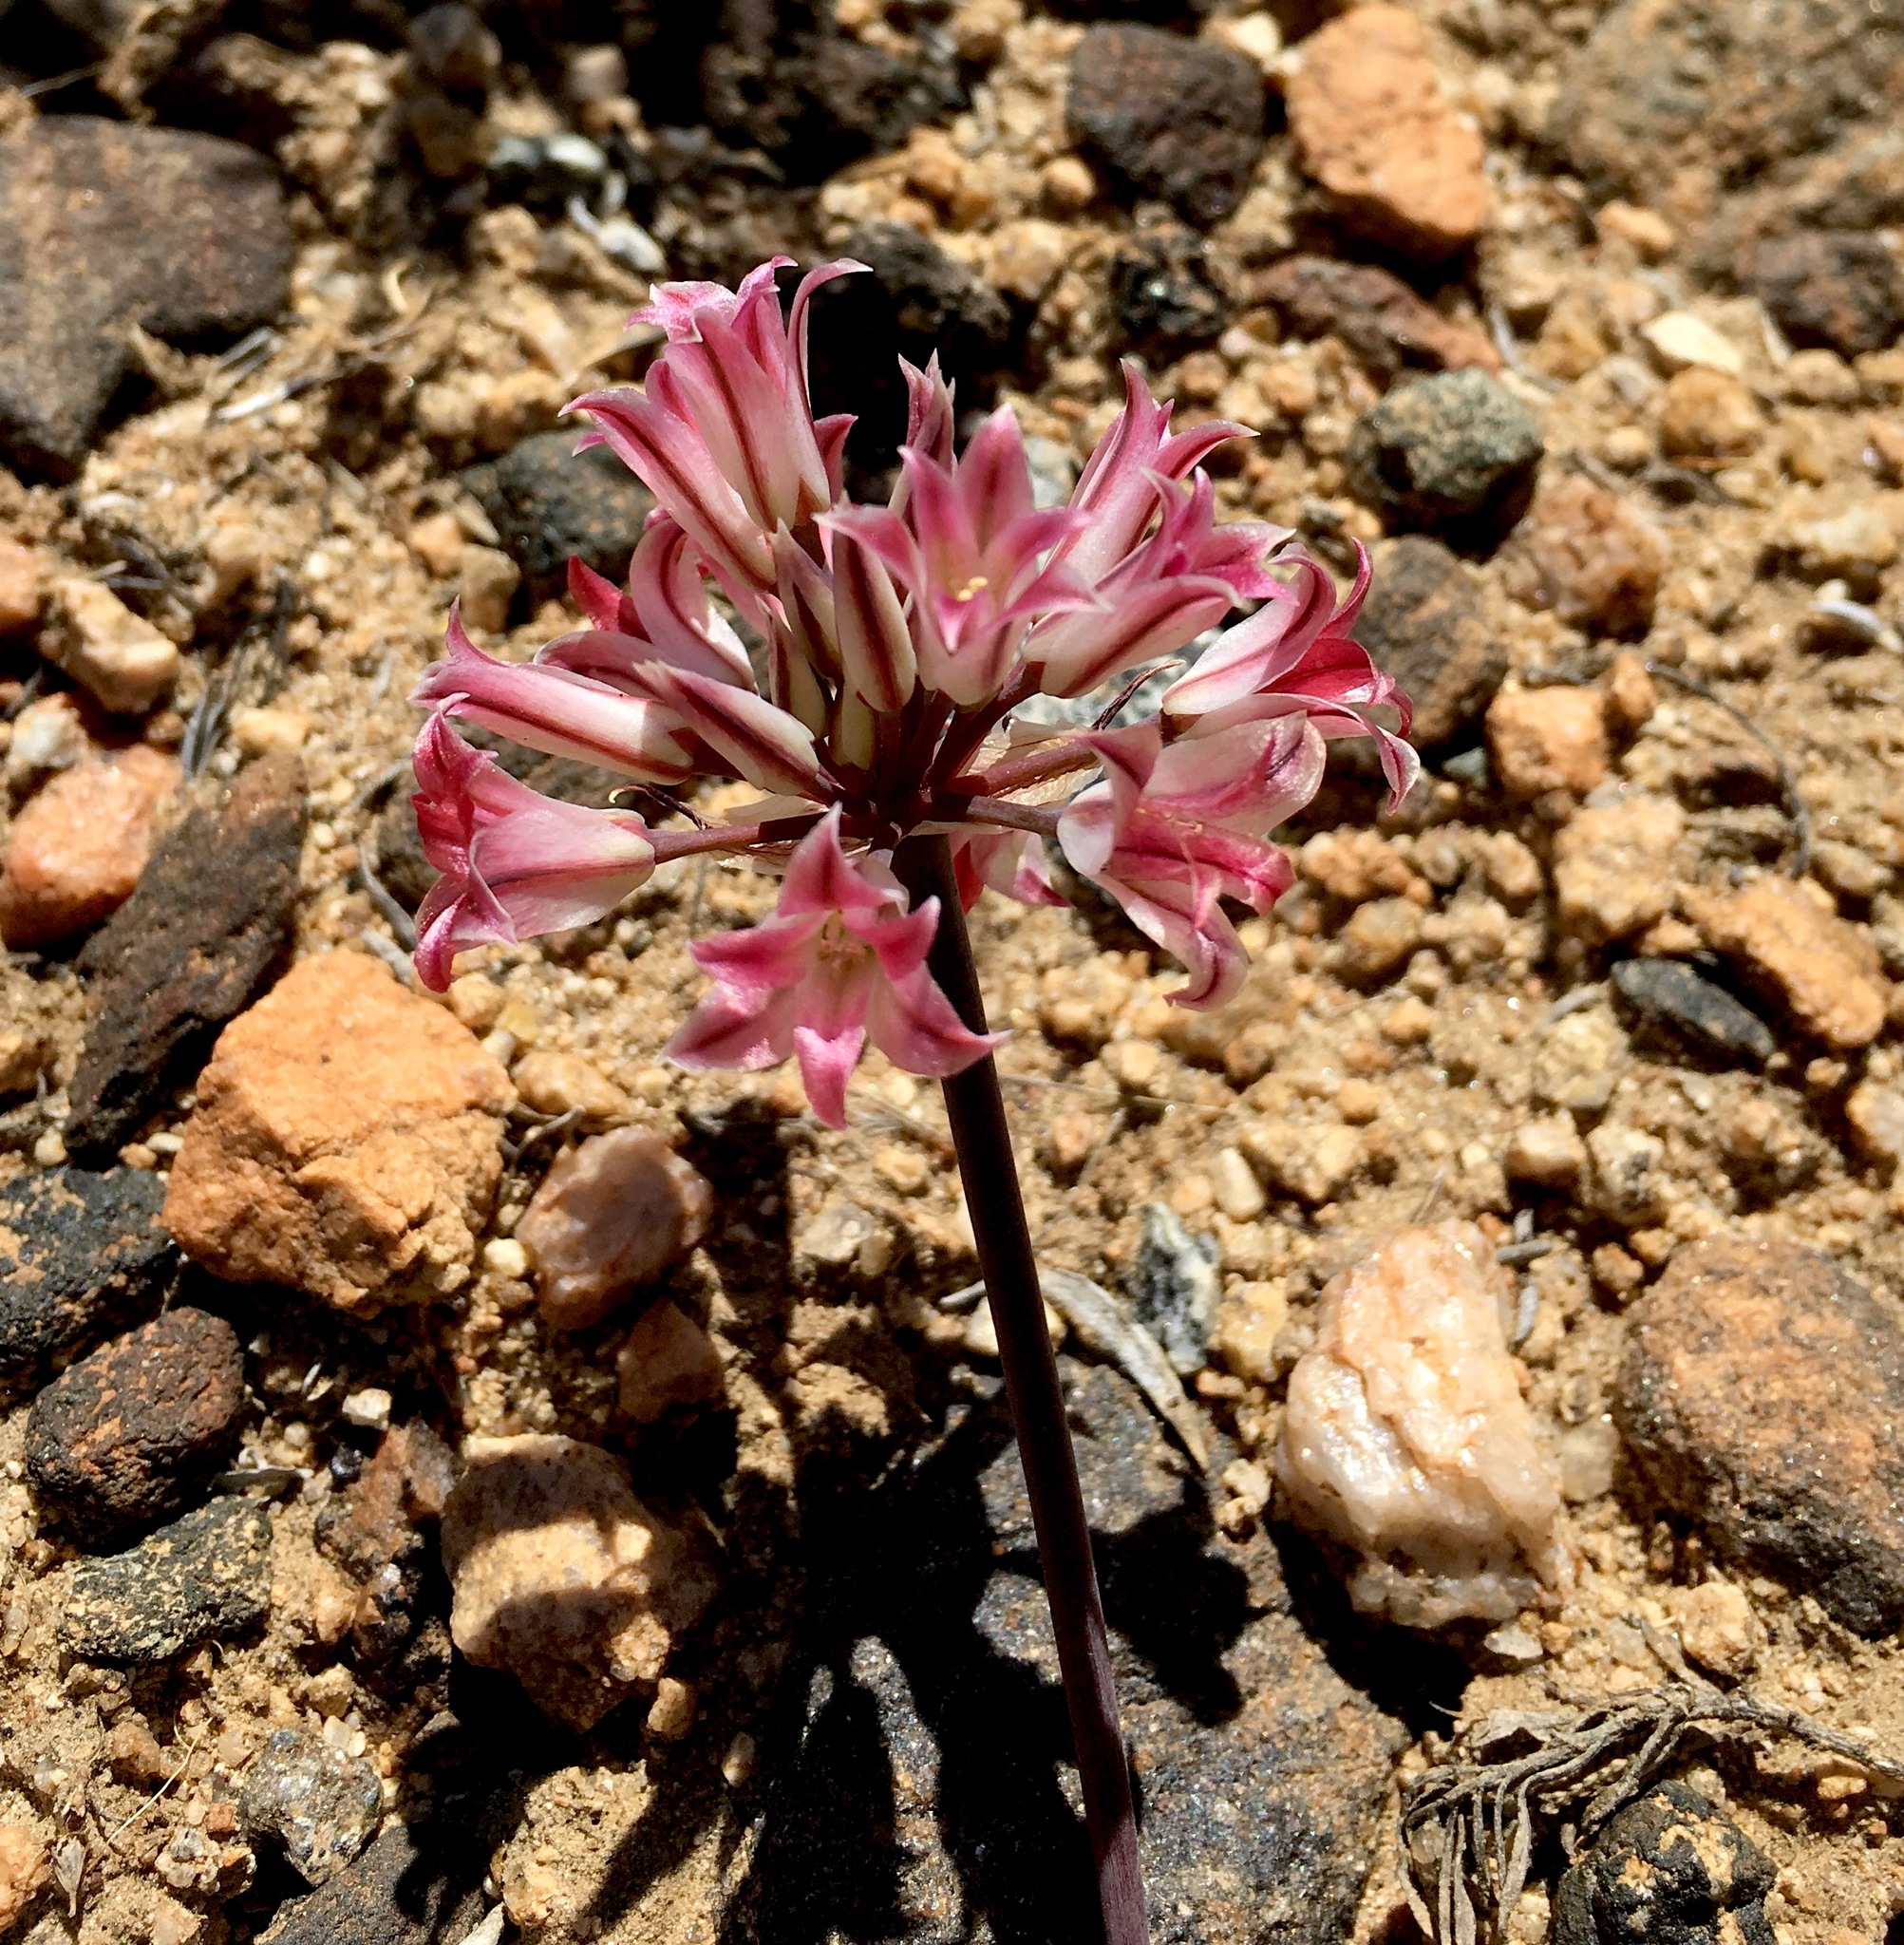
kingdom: Plantae
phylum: Tracheophyta
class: Liliopsida
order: Asparagales
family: Amaryllidaceae
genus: Allium
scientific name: Allium parishii
